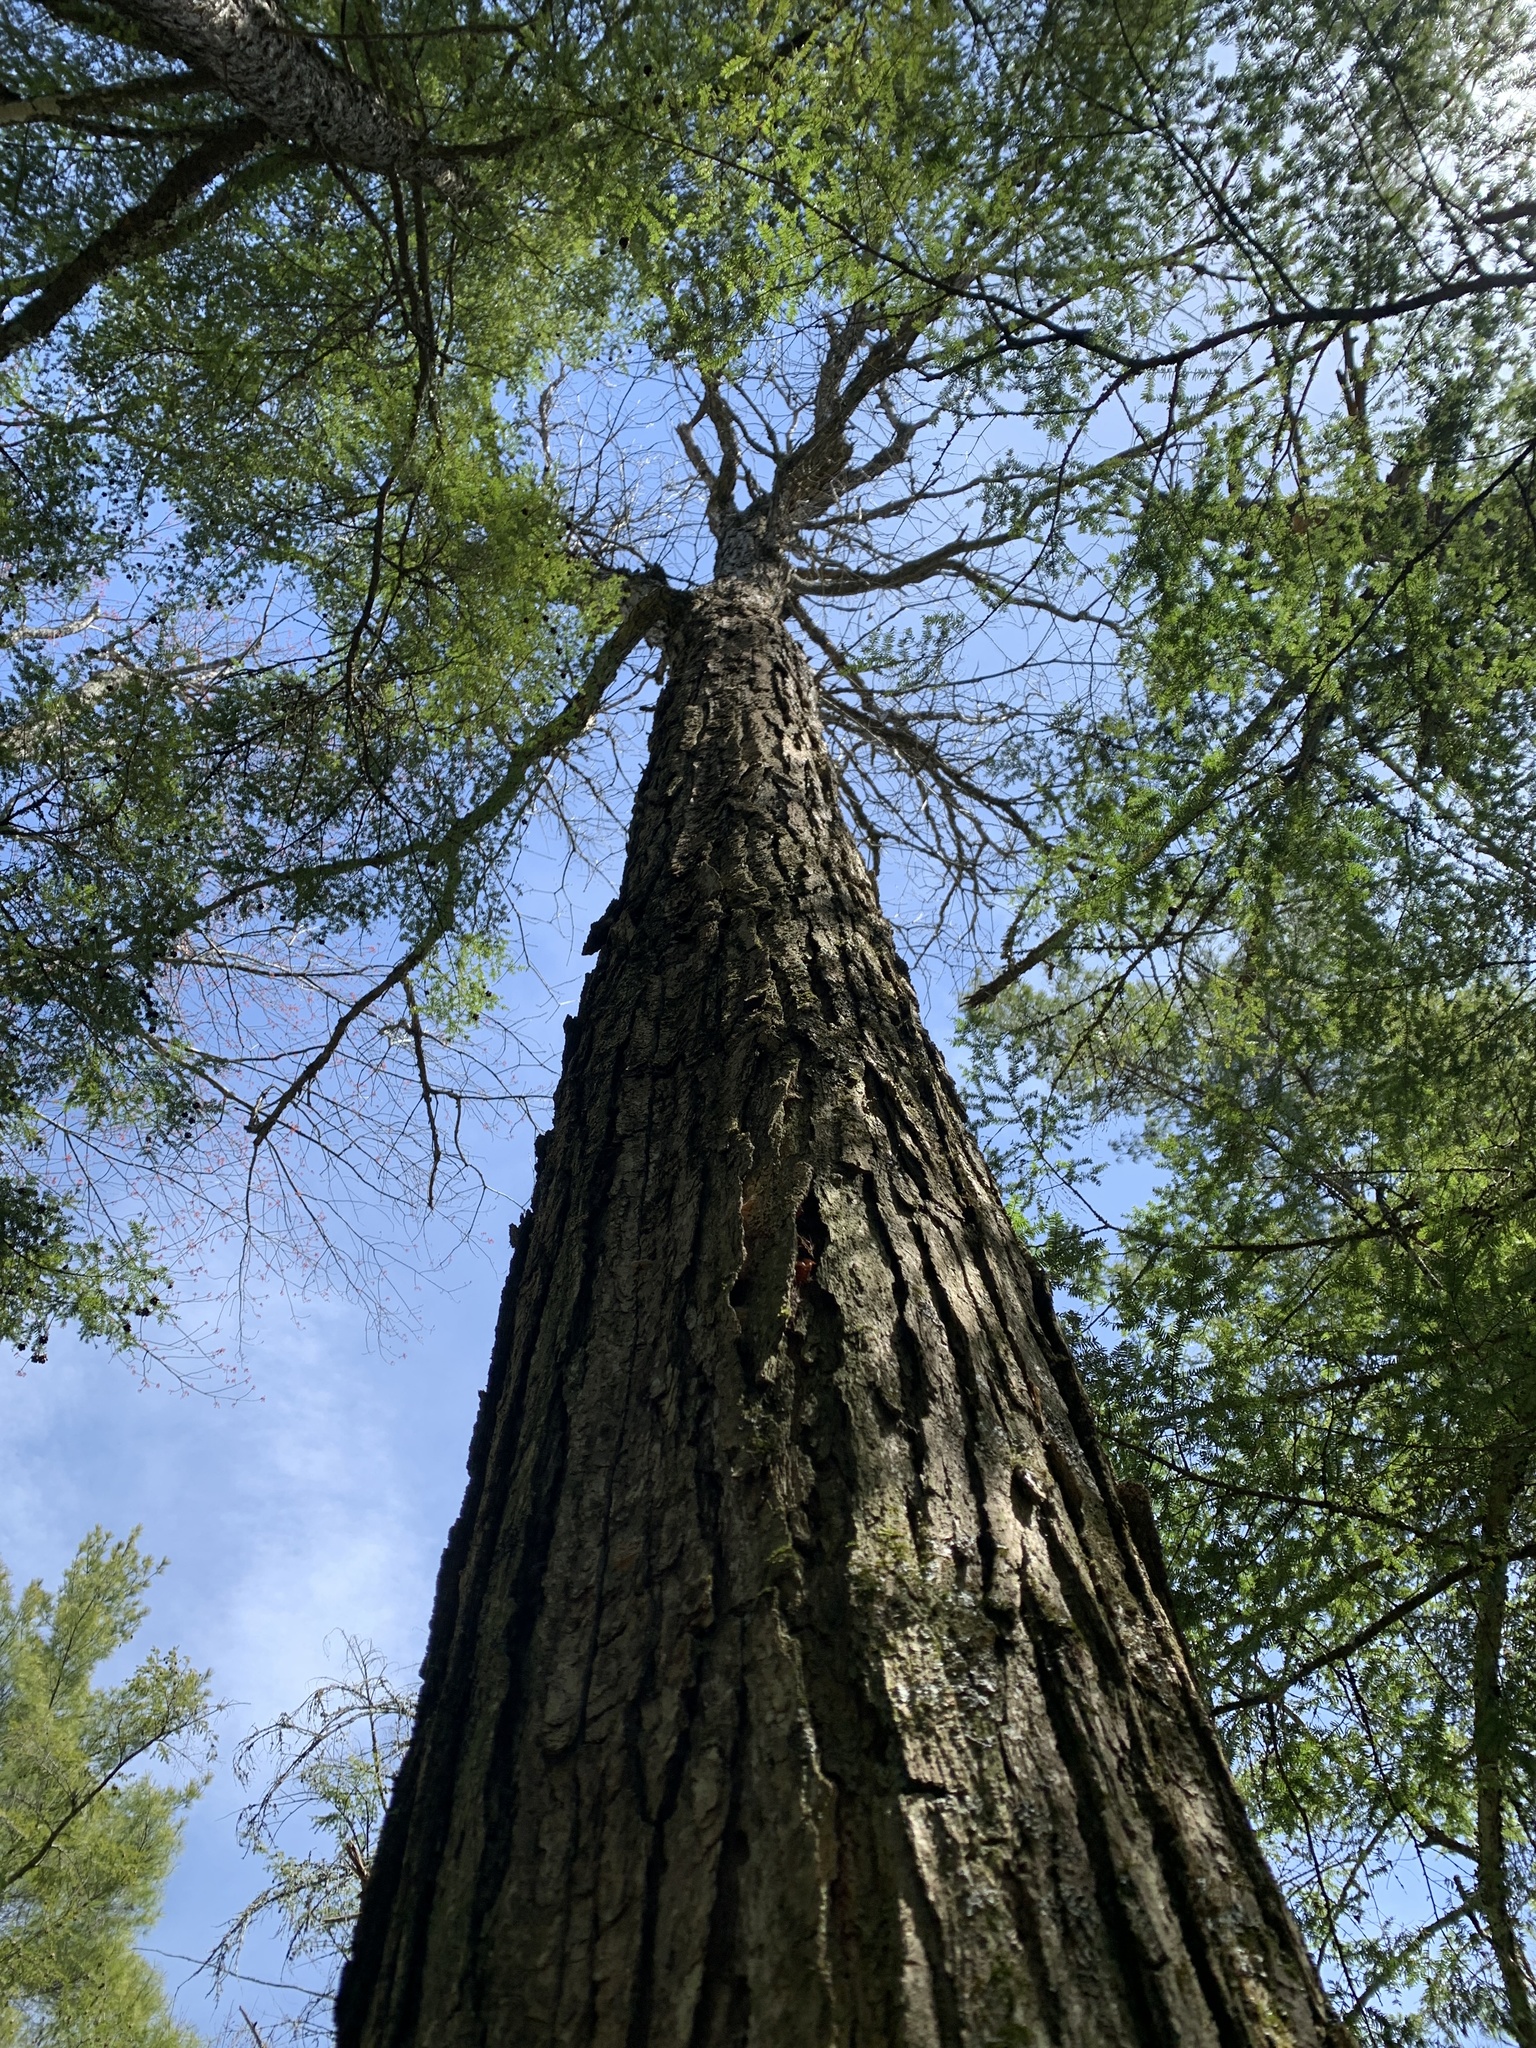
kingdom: Plantae
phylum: Tracheophyta
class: Magnoliopsida
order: Fagales
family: Fagaceae
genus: Quercus
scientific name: Quercus macrocarpa
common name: Bur oak
